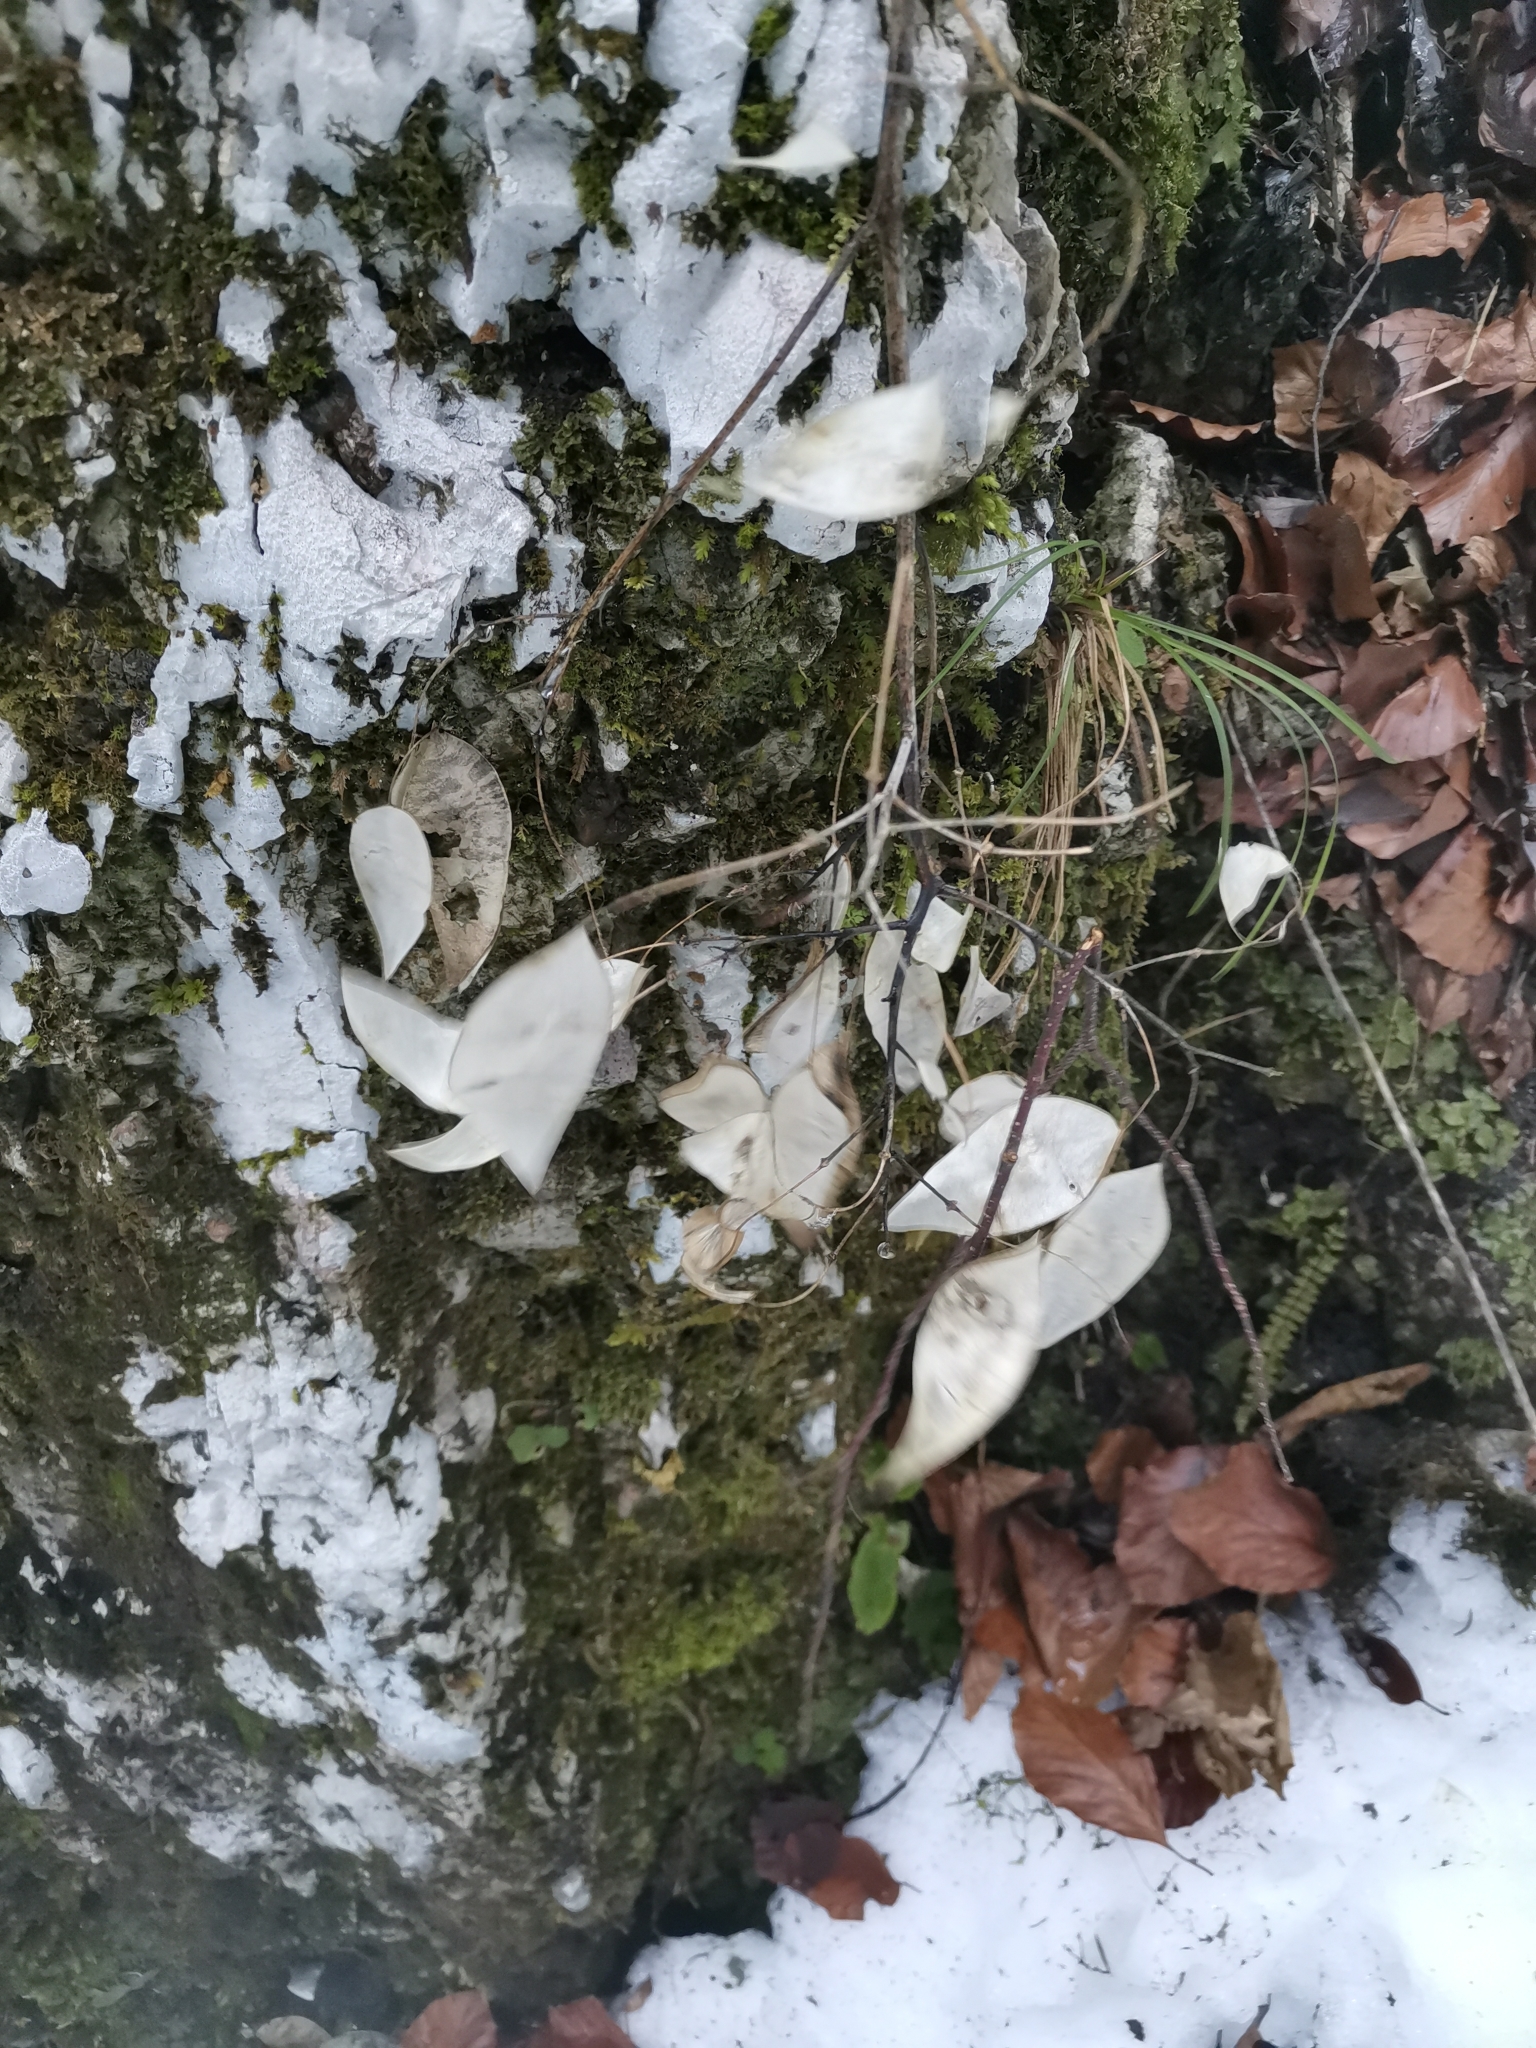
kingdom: Plantae
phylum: Tracheophyta
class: Magnoliopsida
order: Brassicales
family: Brassicaceae
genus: Lunaria
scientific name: Lunaria rediviva
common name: Perennial honesty
